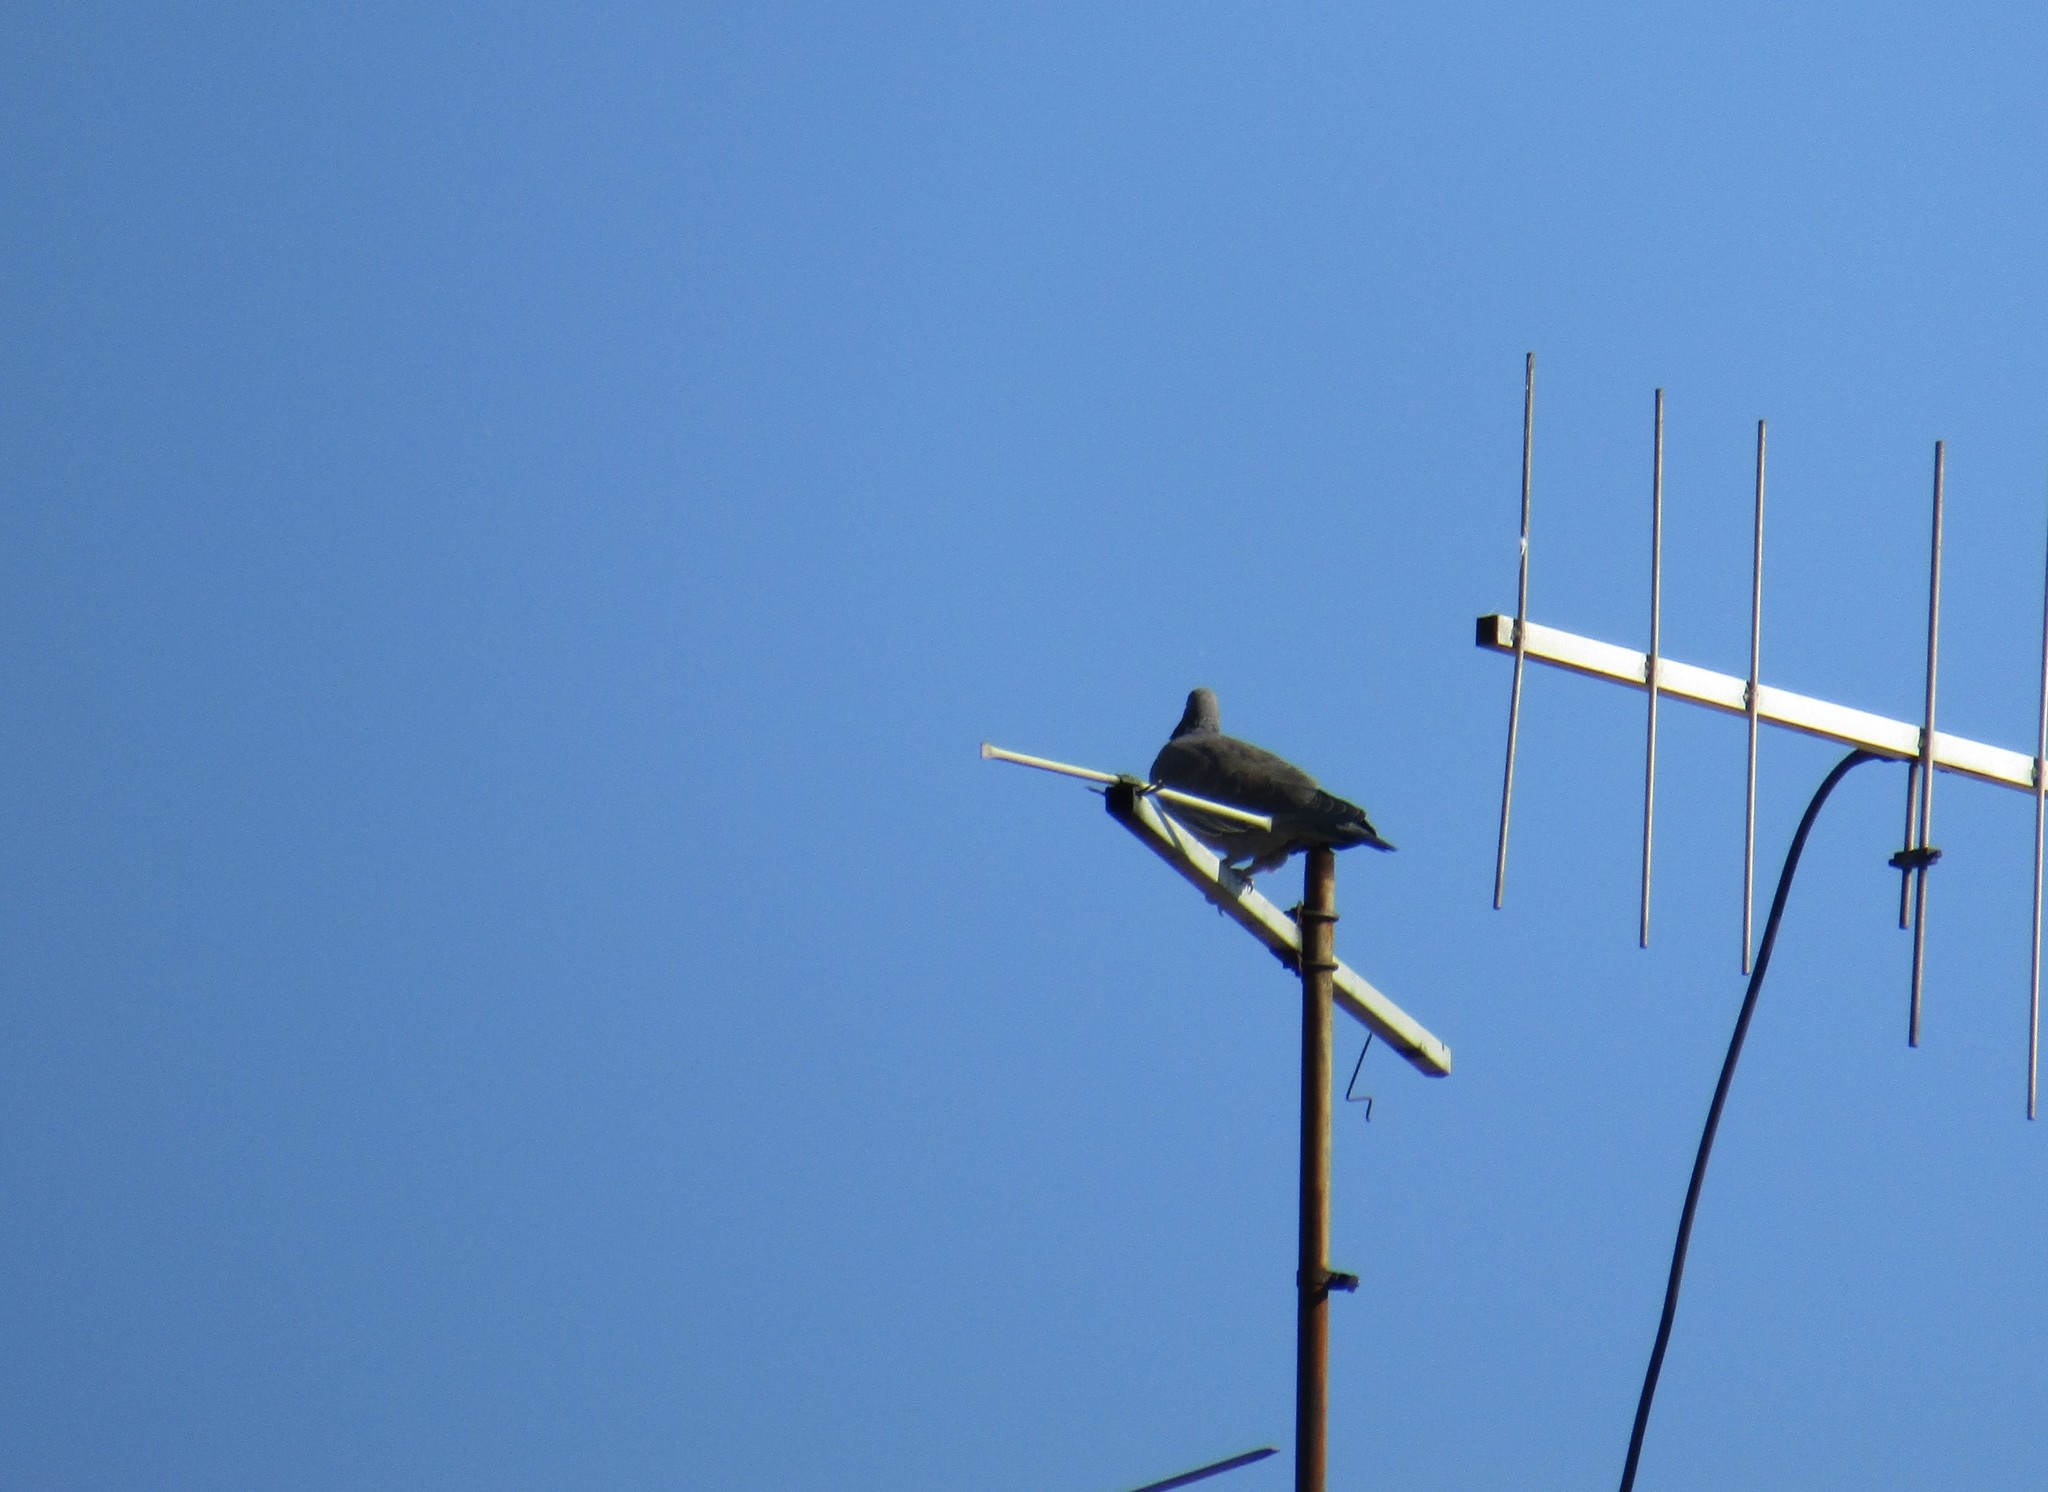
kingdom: Animalia
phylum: Chordata
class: Aves
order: Columbiformes
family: Columbidae
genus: Patagioenas
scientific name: Patagioenas picazuro
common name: Picazuro pigeon
